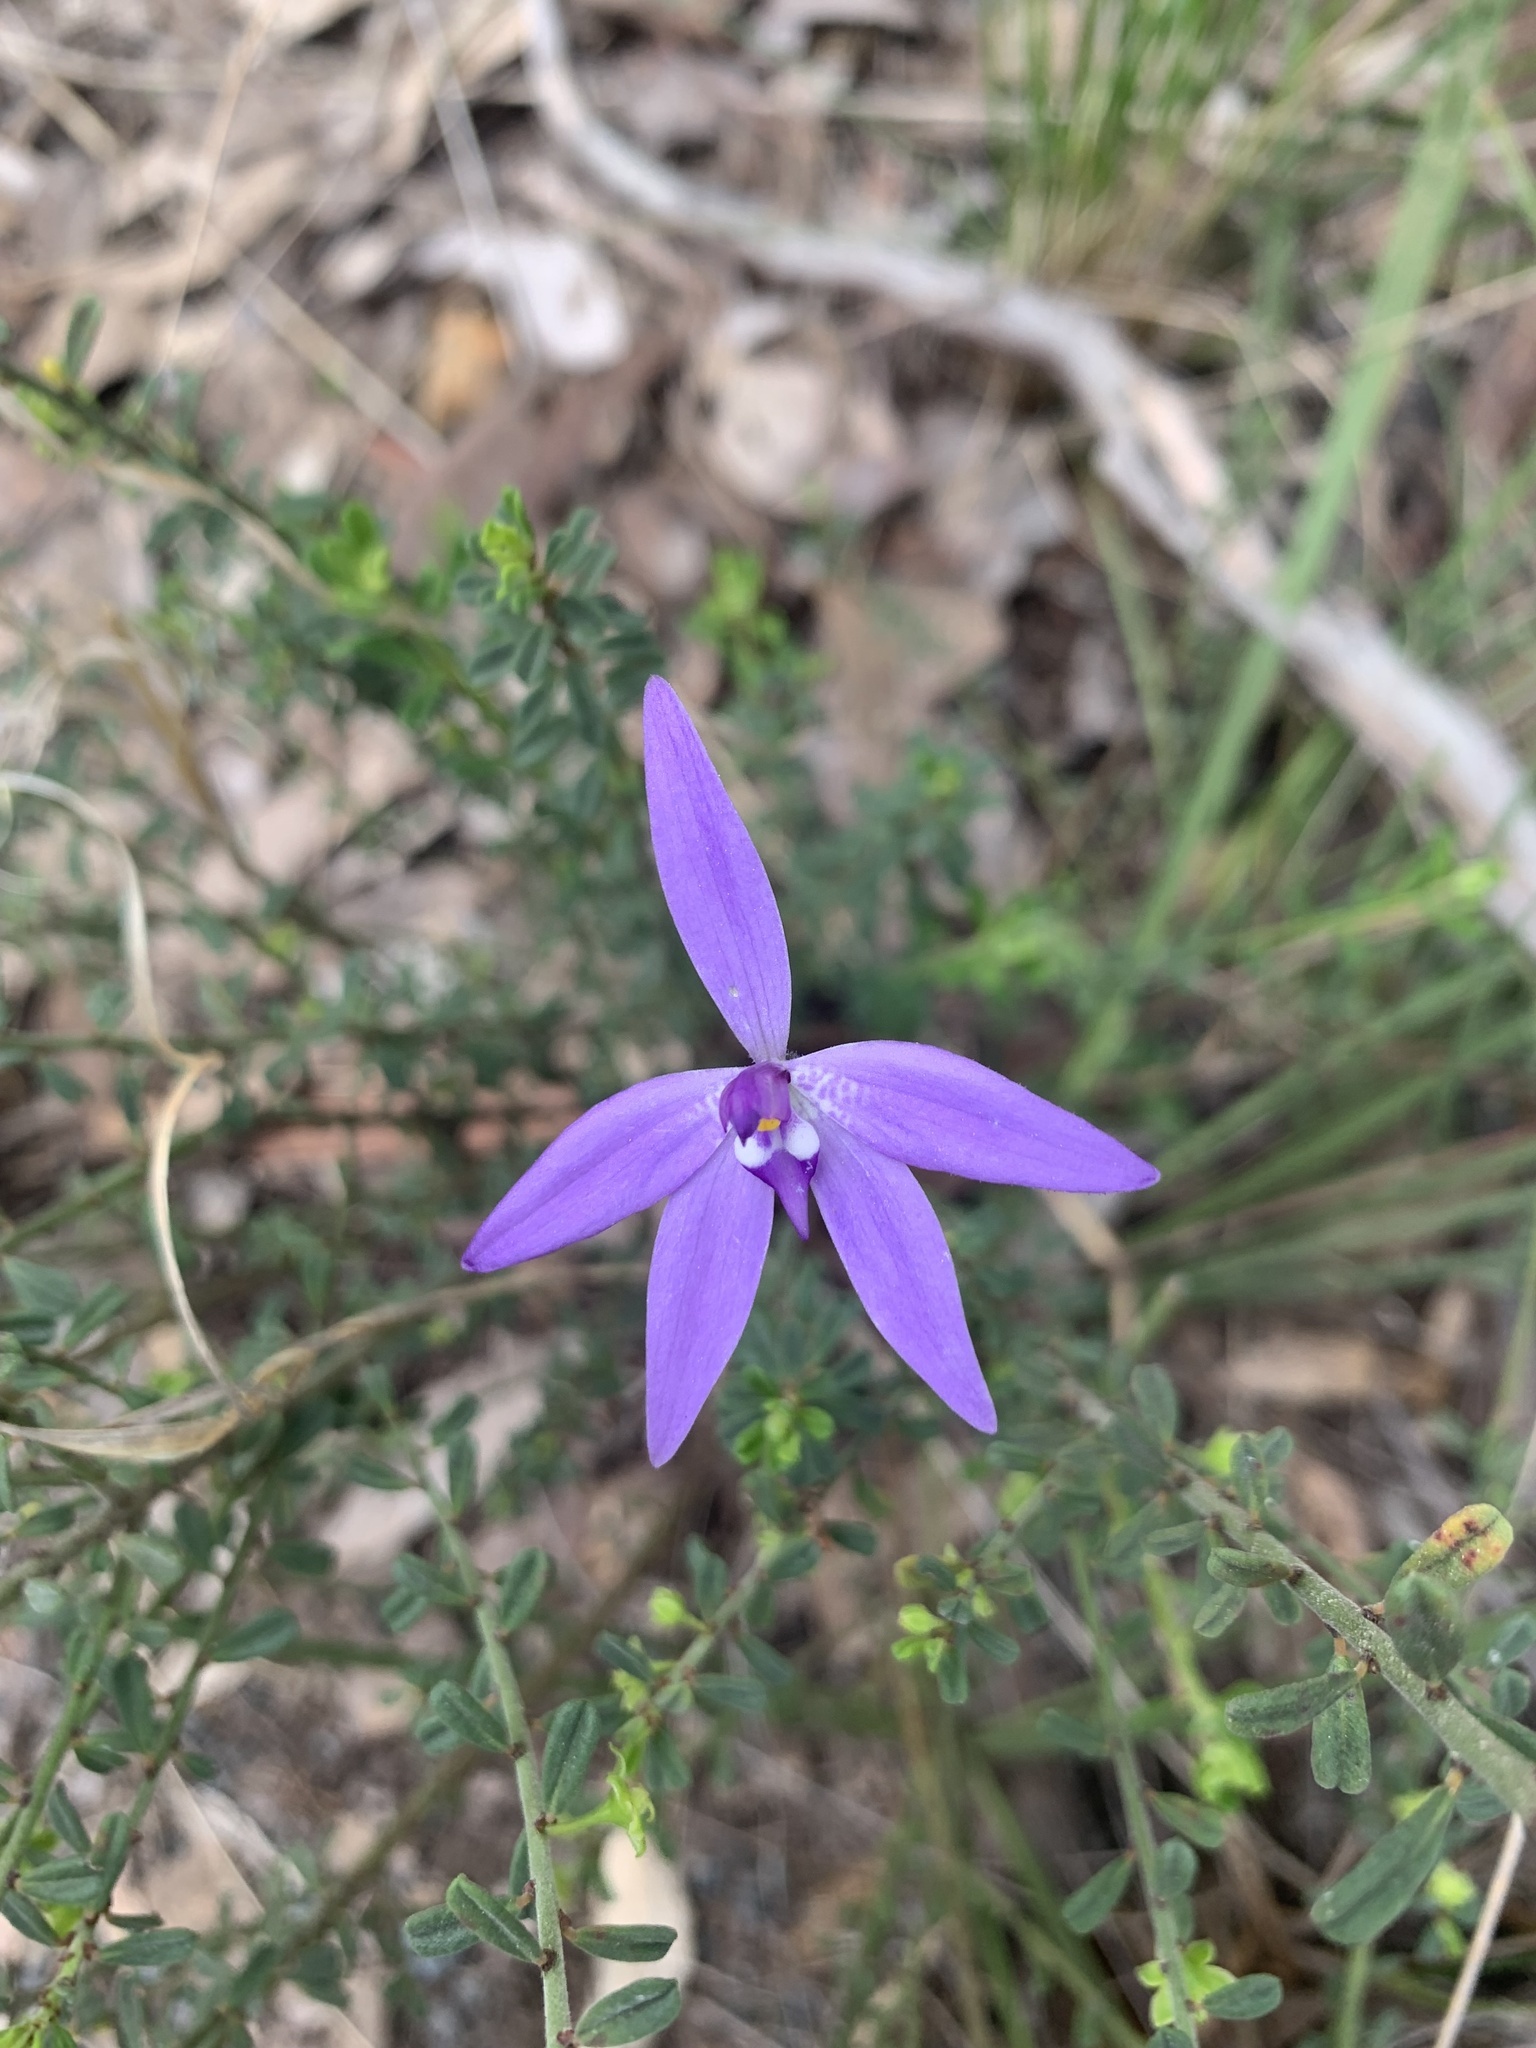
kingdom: Plantae
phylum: Tracheophyta
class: Liliopsida
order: Asparagales
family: Orchidaceae
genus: Caladenia
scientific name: Caladenia major
